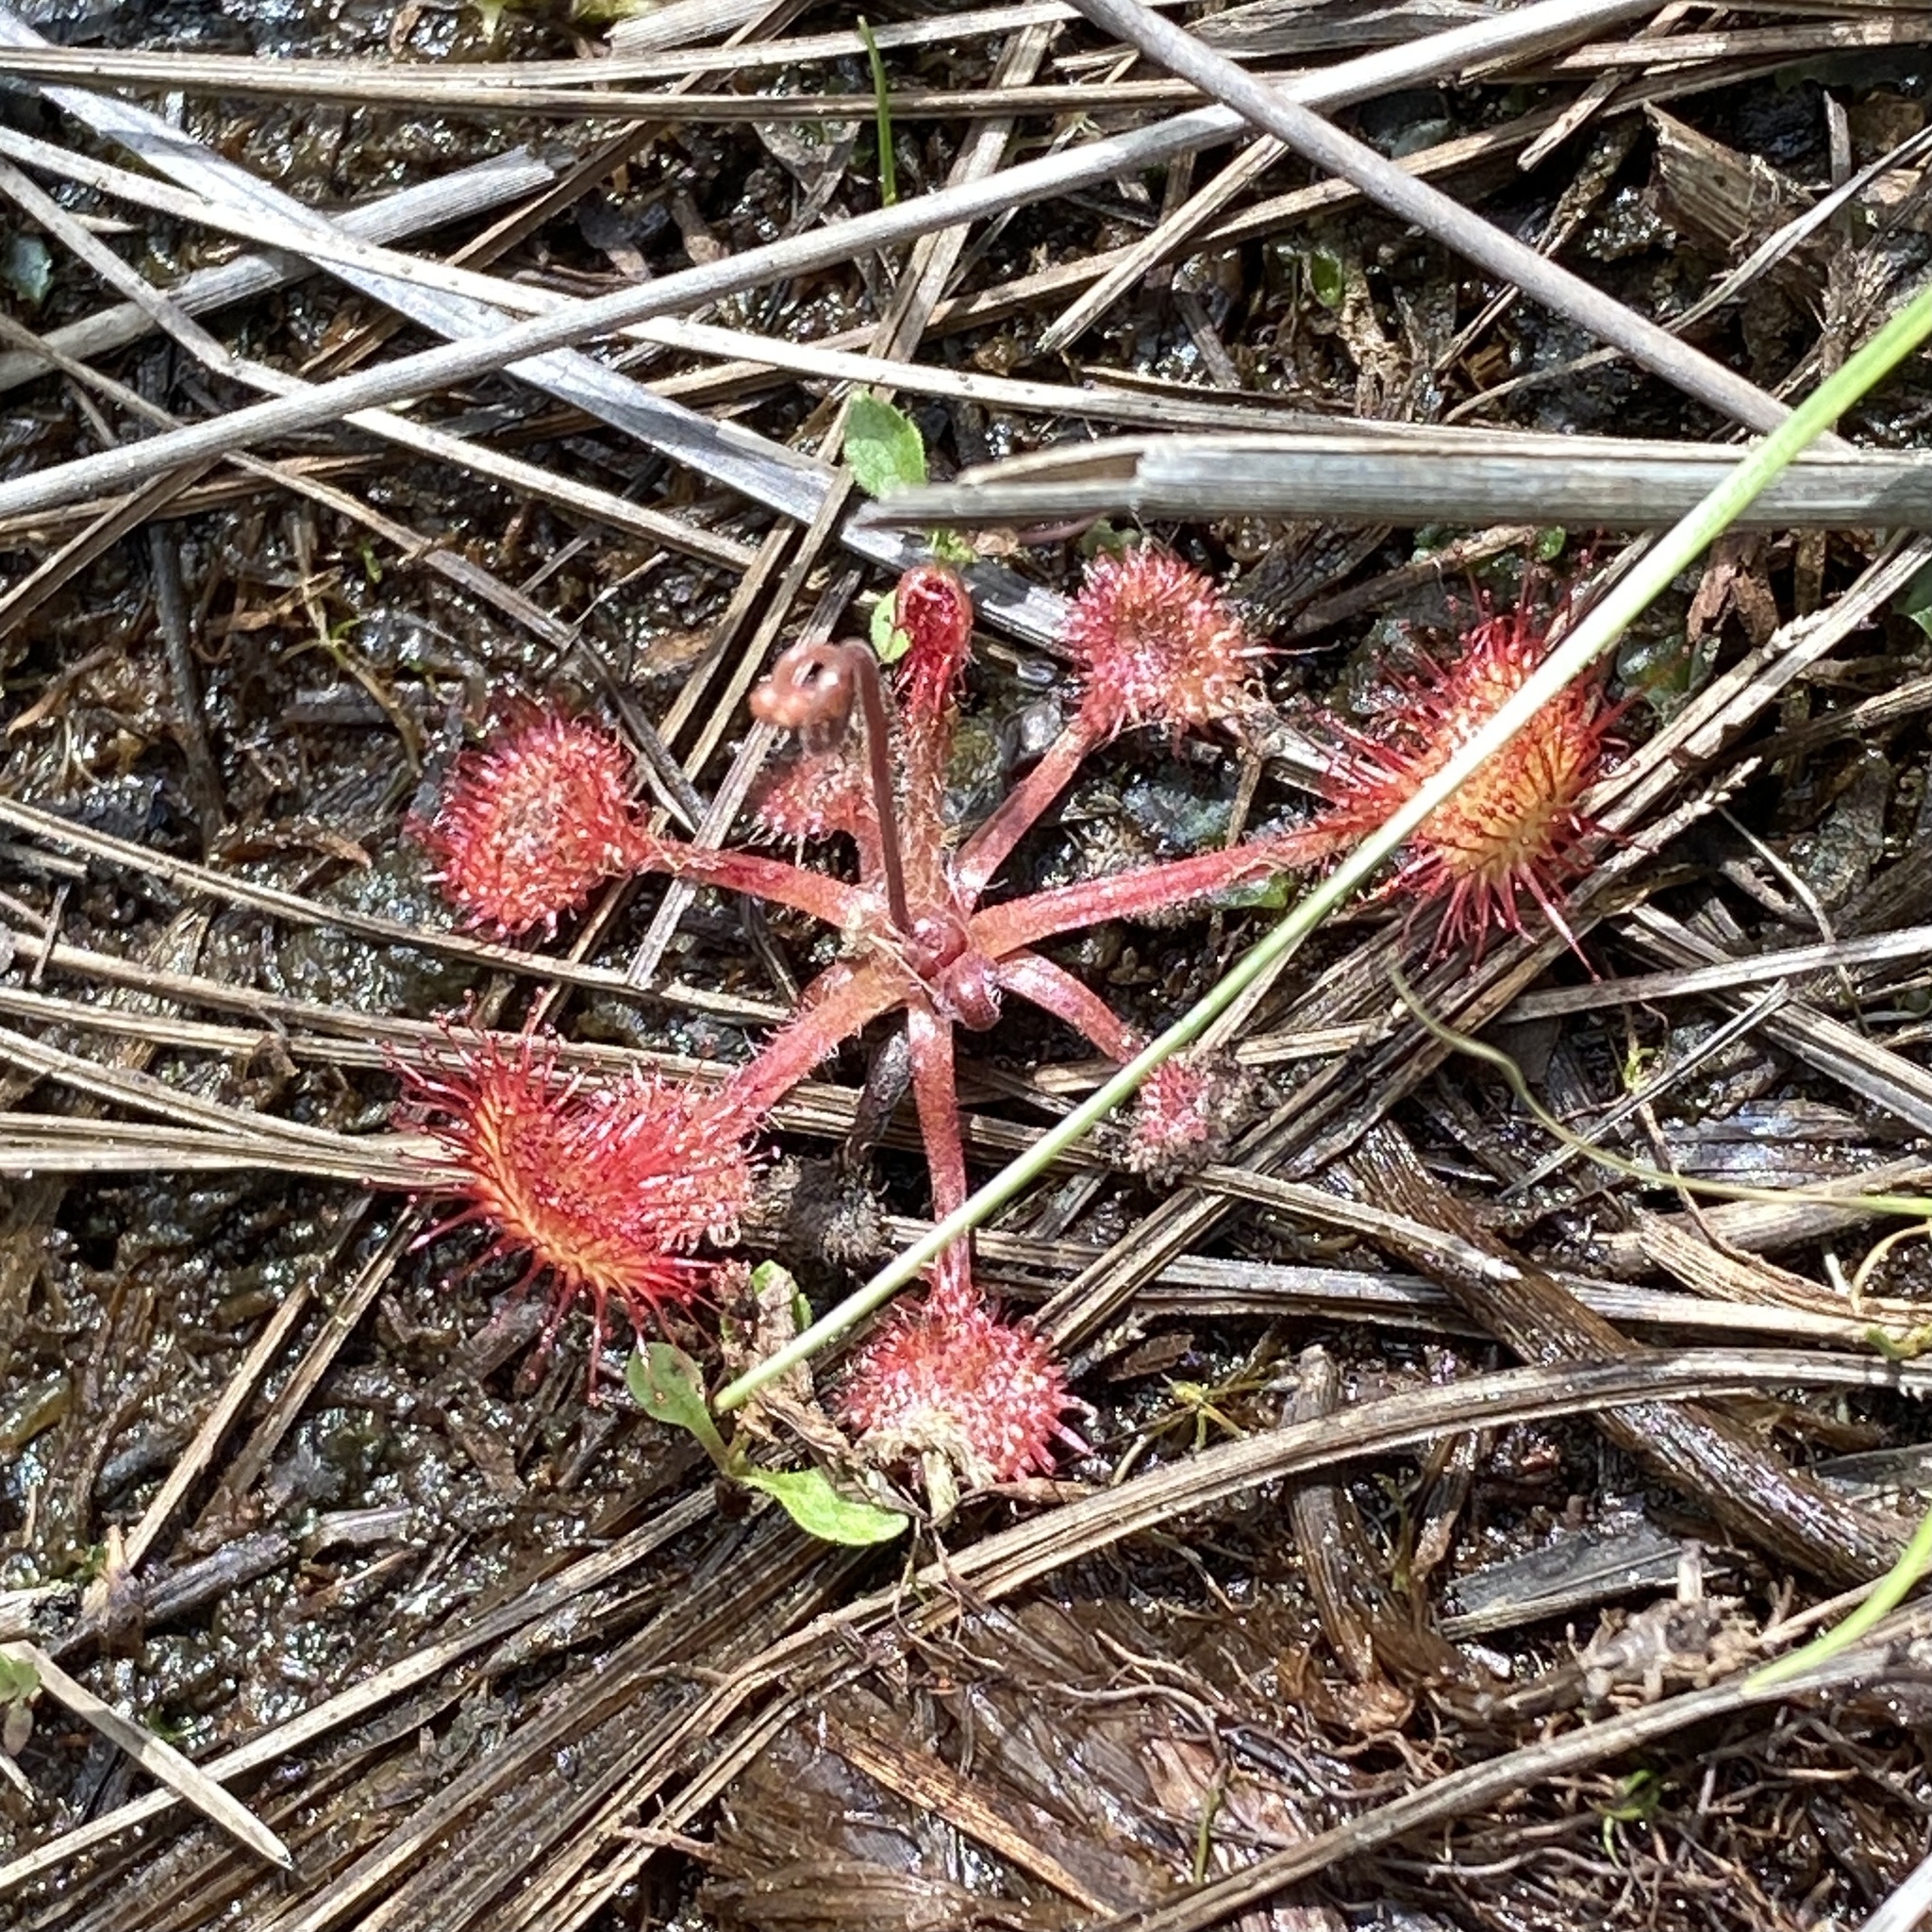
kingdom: Plantae
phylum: Tracheophyta
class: Magnoliopsida
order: Caryophyllales
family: Droseraceae
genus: Drosera
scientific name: Drosera rotundifolia
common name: Round-leaved sundew
